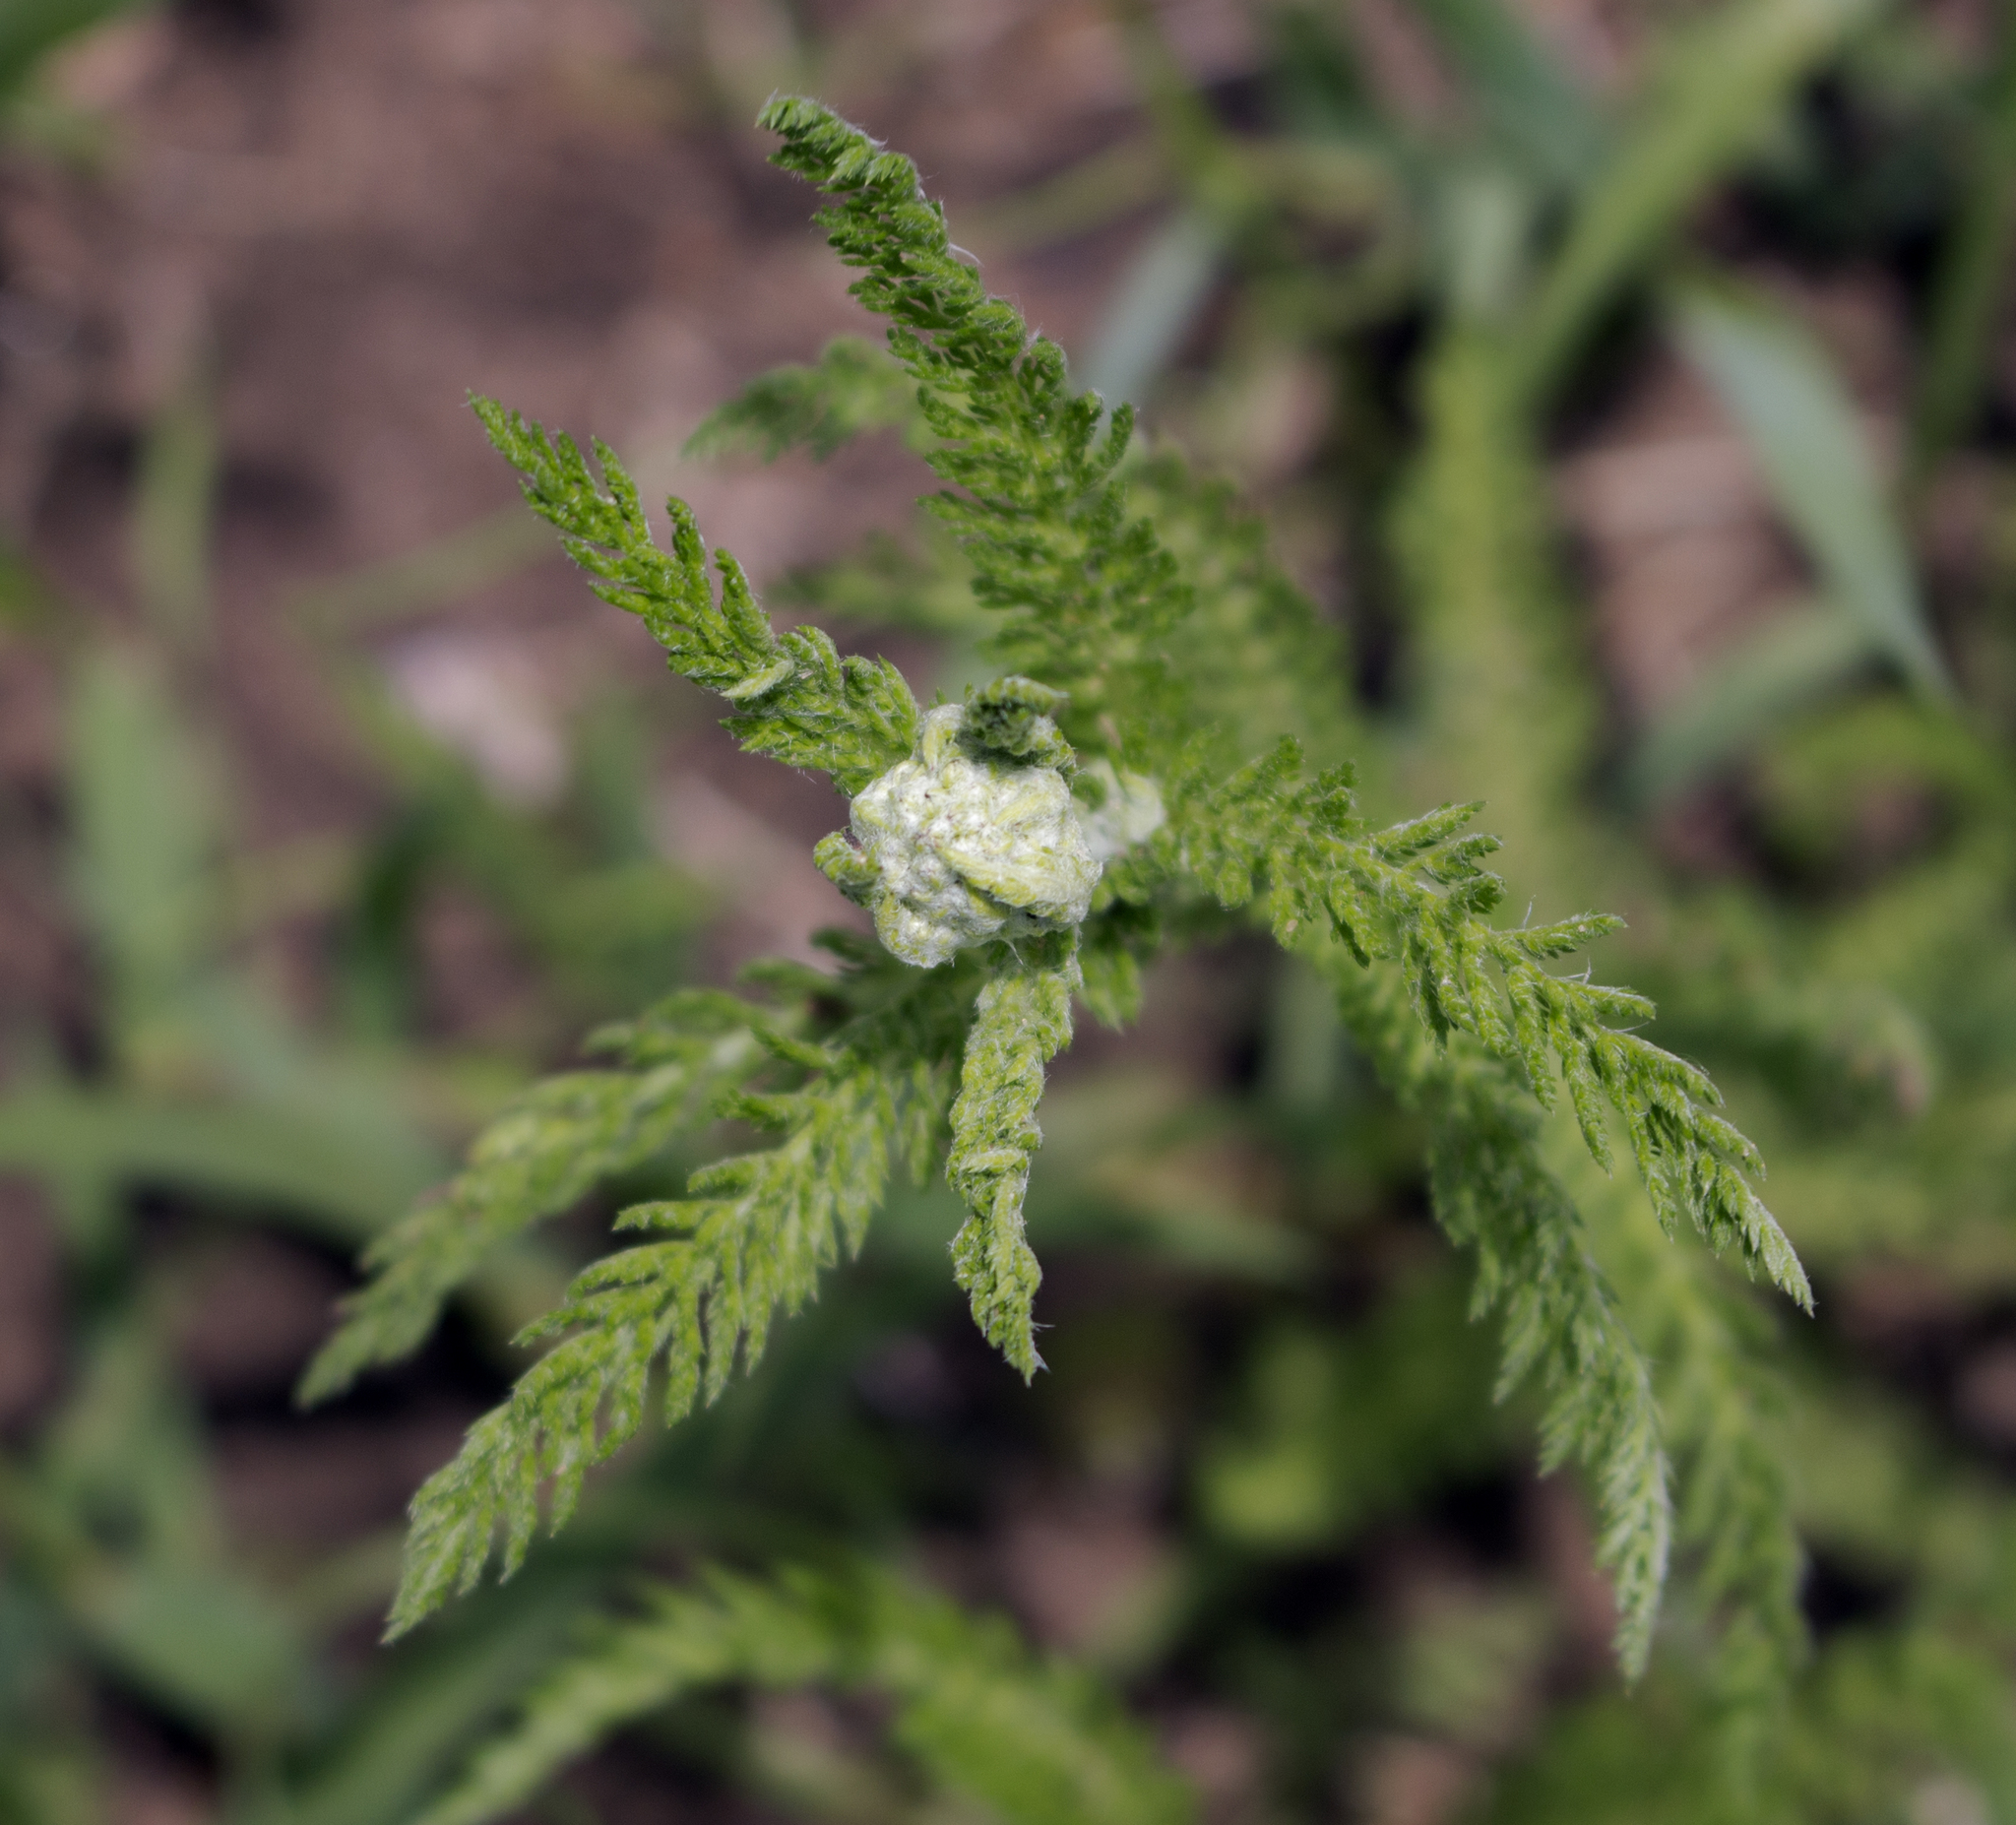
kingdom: Plantae
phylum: Tracheophyta
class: Magnoliopsida
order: Asterales
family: Asteraceae
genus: Achillea
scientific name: Achillea millefolium
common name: Yarrow
